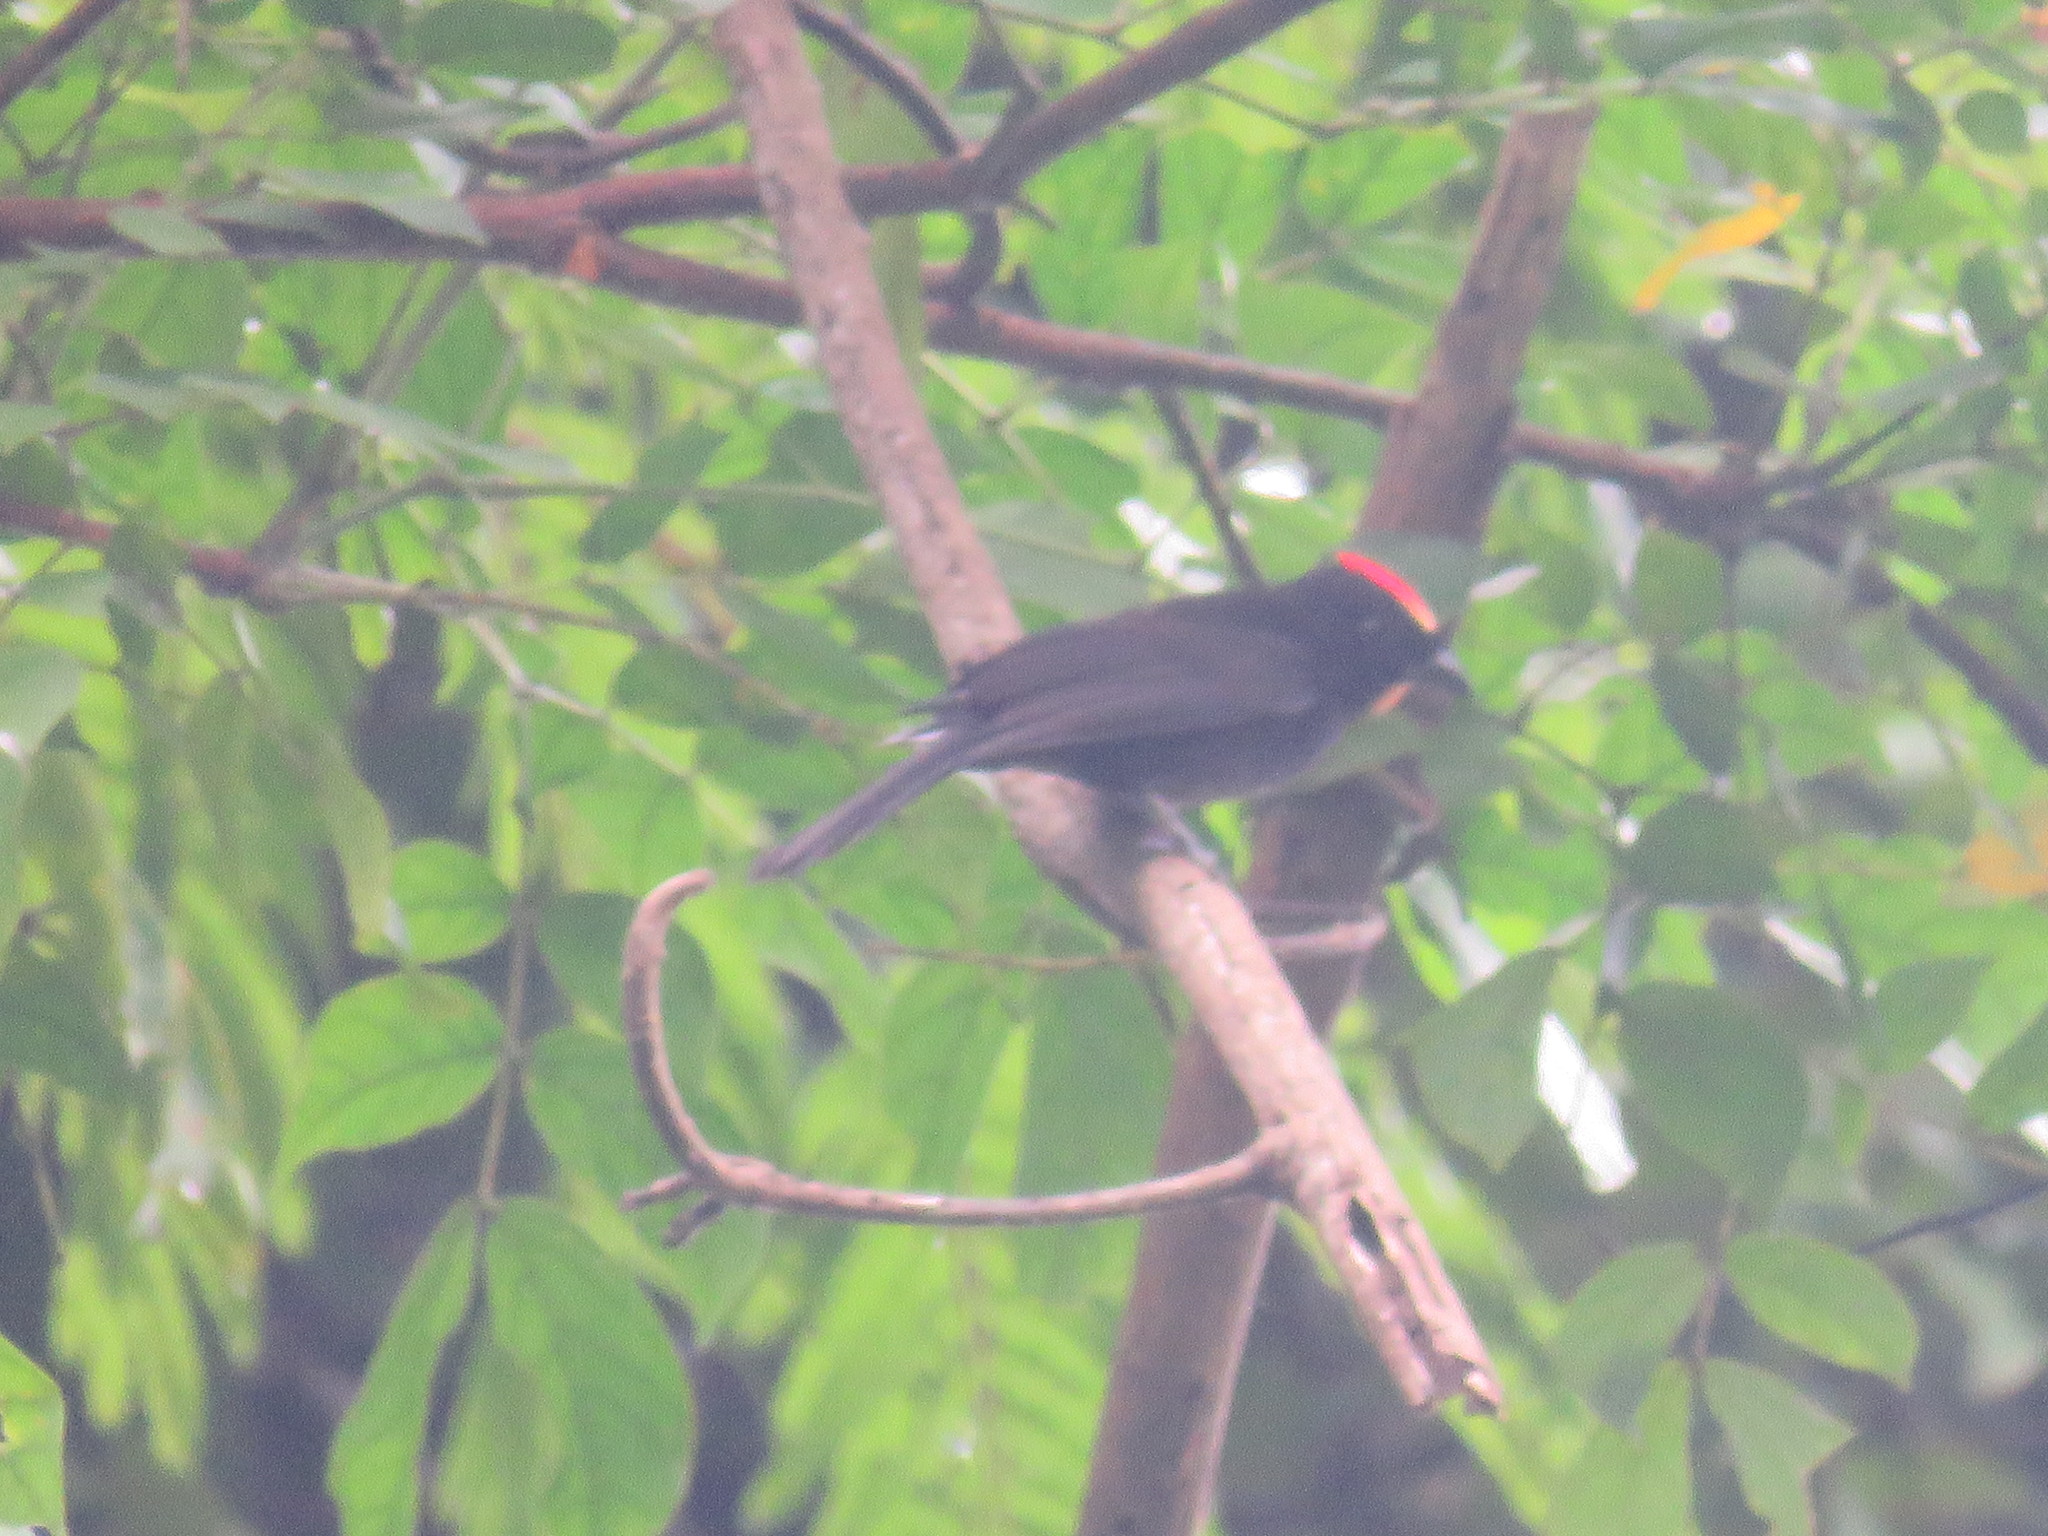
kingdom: Animalia
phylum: Chordata
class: Aves
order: Passeriformes
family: Thraupidae
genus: Loriotus
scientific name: Loriotus cristatus
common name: Flame-crested tanager
